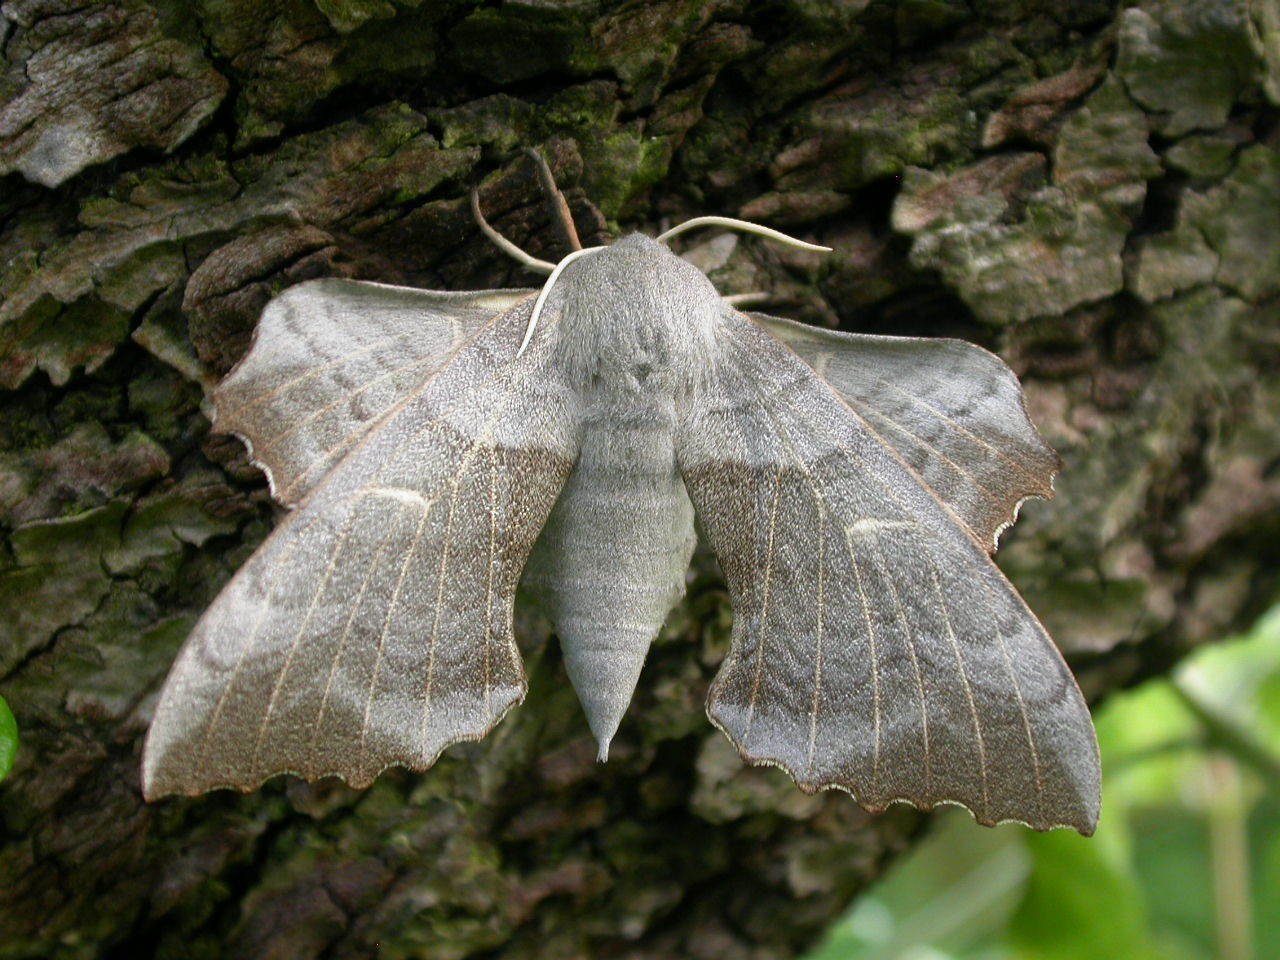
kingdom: Animalia
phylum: Arthropoda
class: Insecta
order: Lepidoptera
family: Sphingidae
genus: Laothoe
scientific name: Laothoe populi
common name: Poplar hawk-moth
